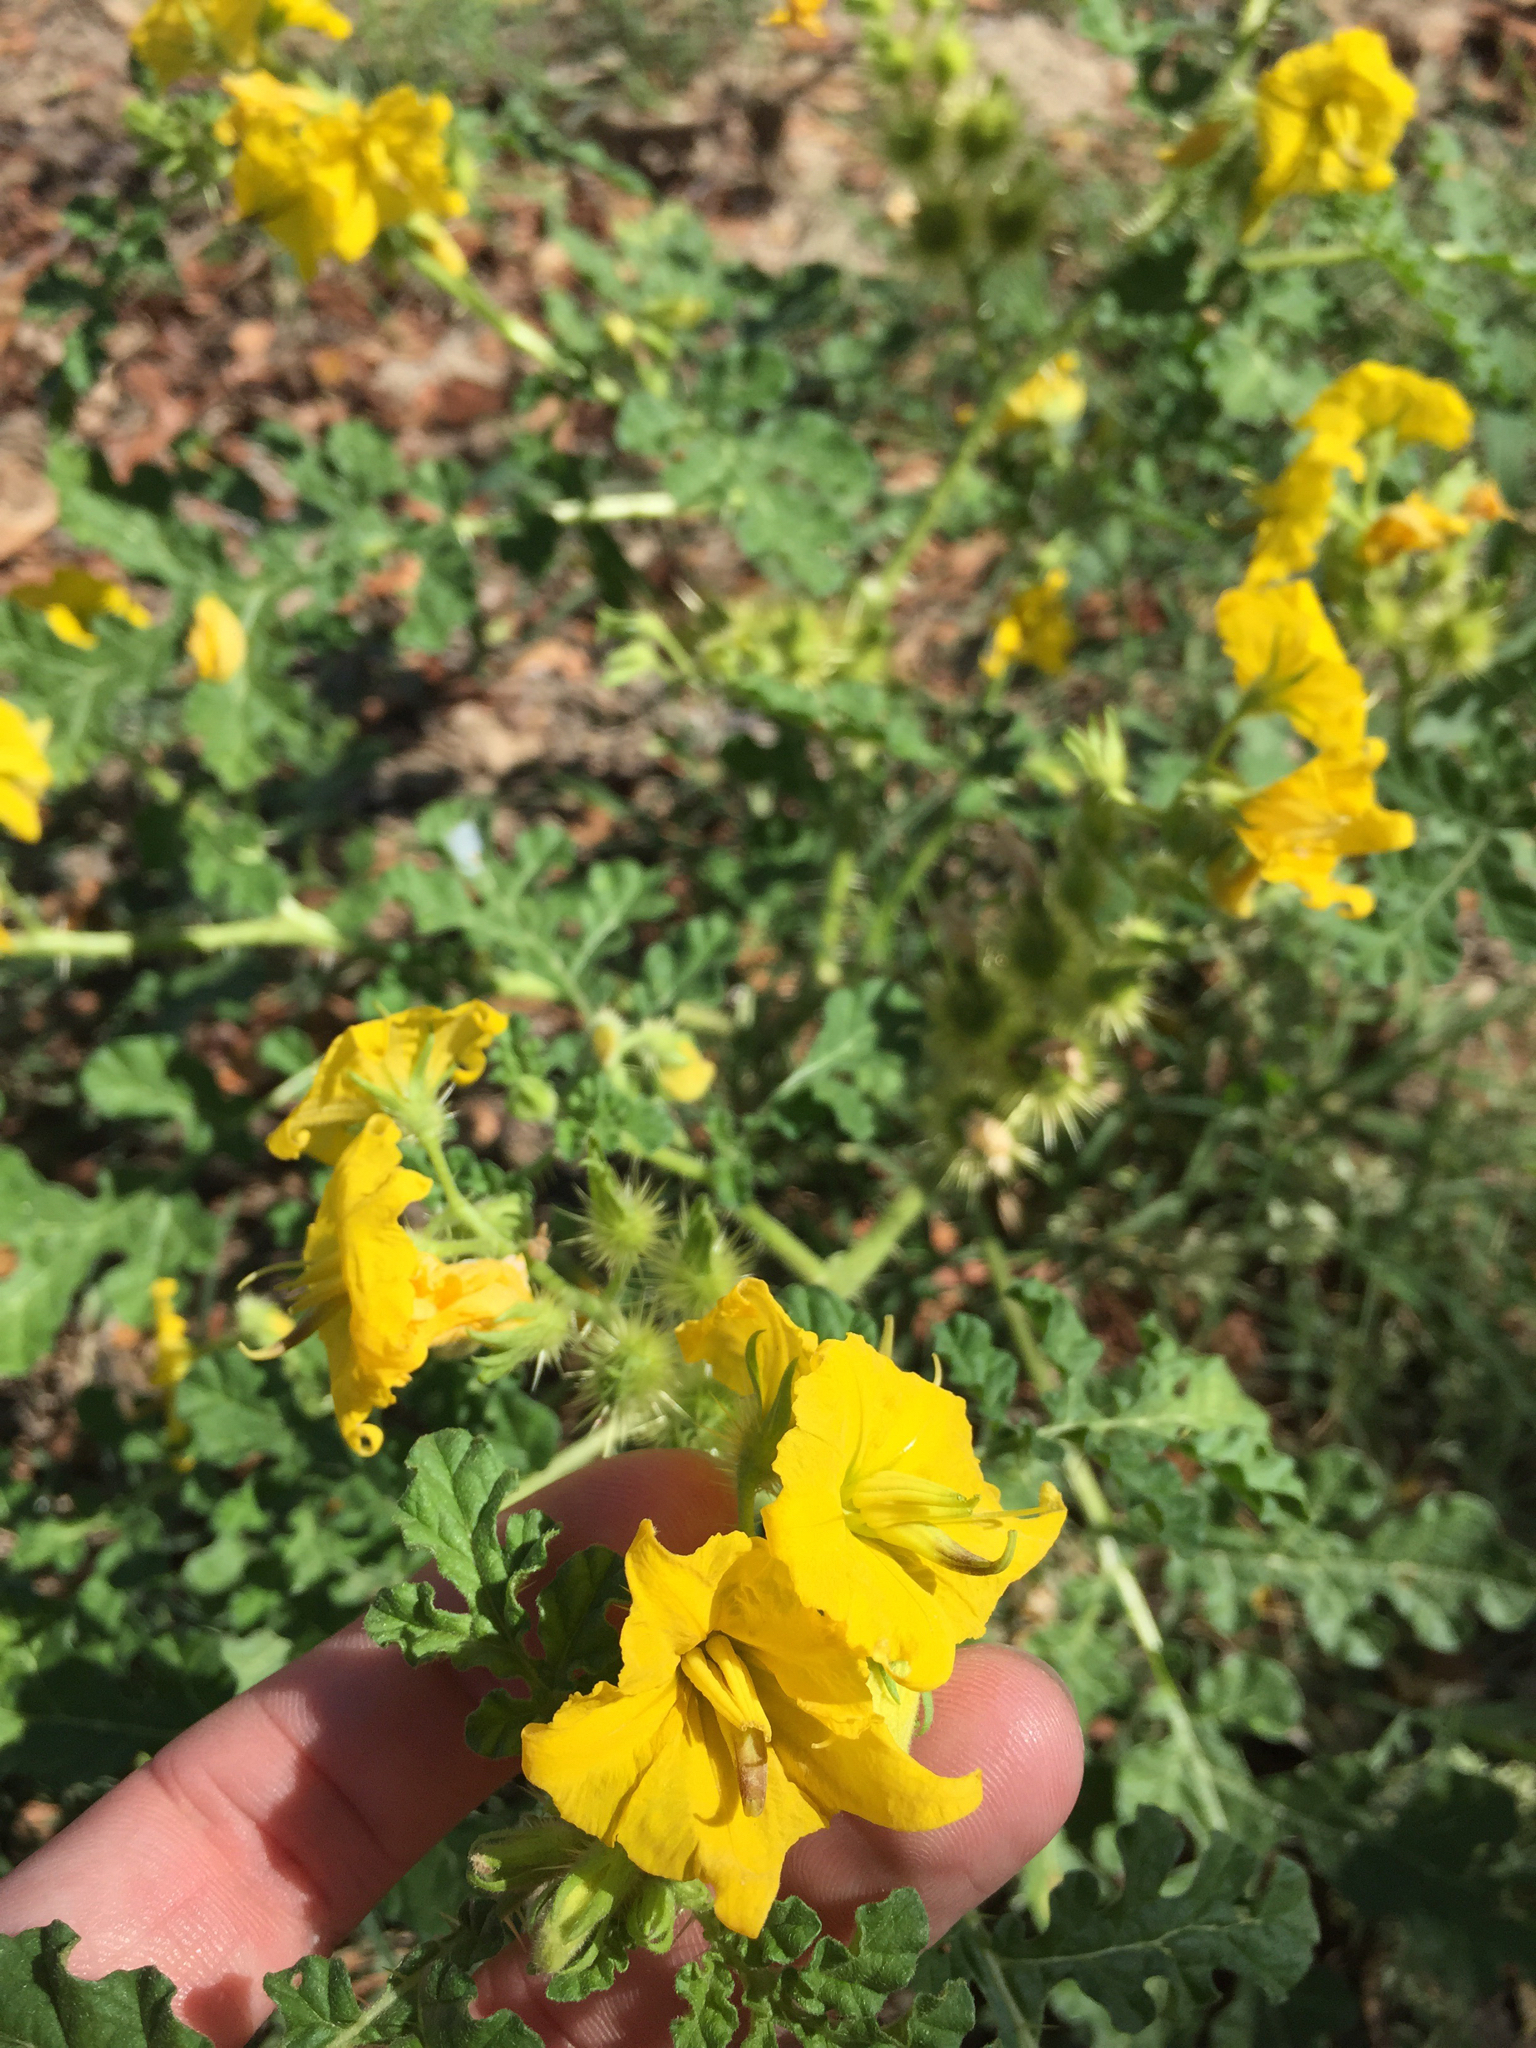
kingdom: Plantae
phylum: Tracheophyta
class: Magnoliopsida
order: Solanales
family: Solanaceae
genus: Solanum
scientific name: Solanum angustifolium
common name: Buffalobur nightshade
